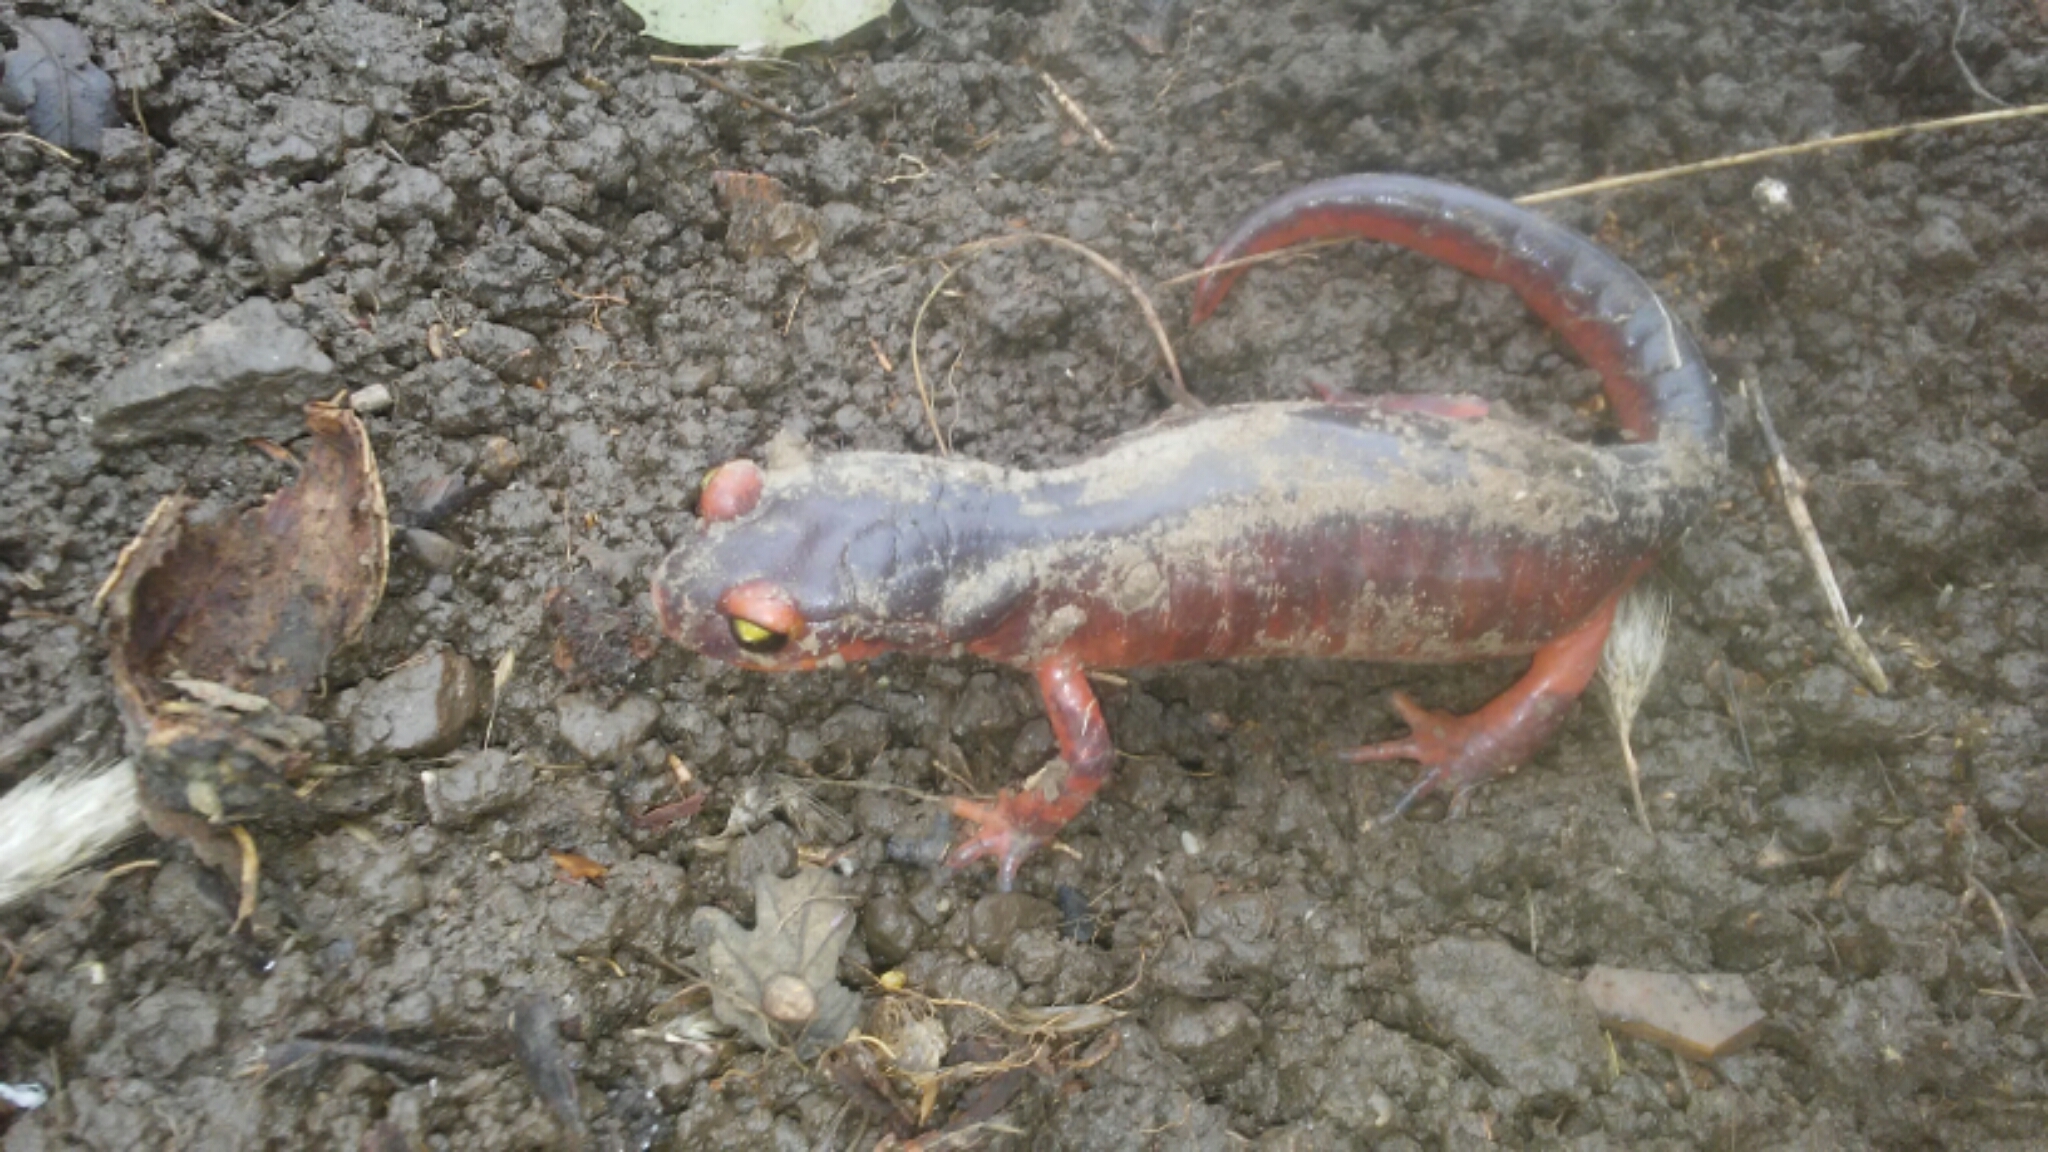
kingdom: Animalia
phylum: Chordata
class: Amphibia
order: Caudata
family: Plethodontidae
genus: Ensatina
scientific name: Ensatina eschscholtzii
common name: Ensatina
